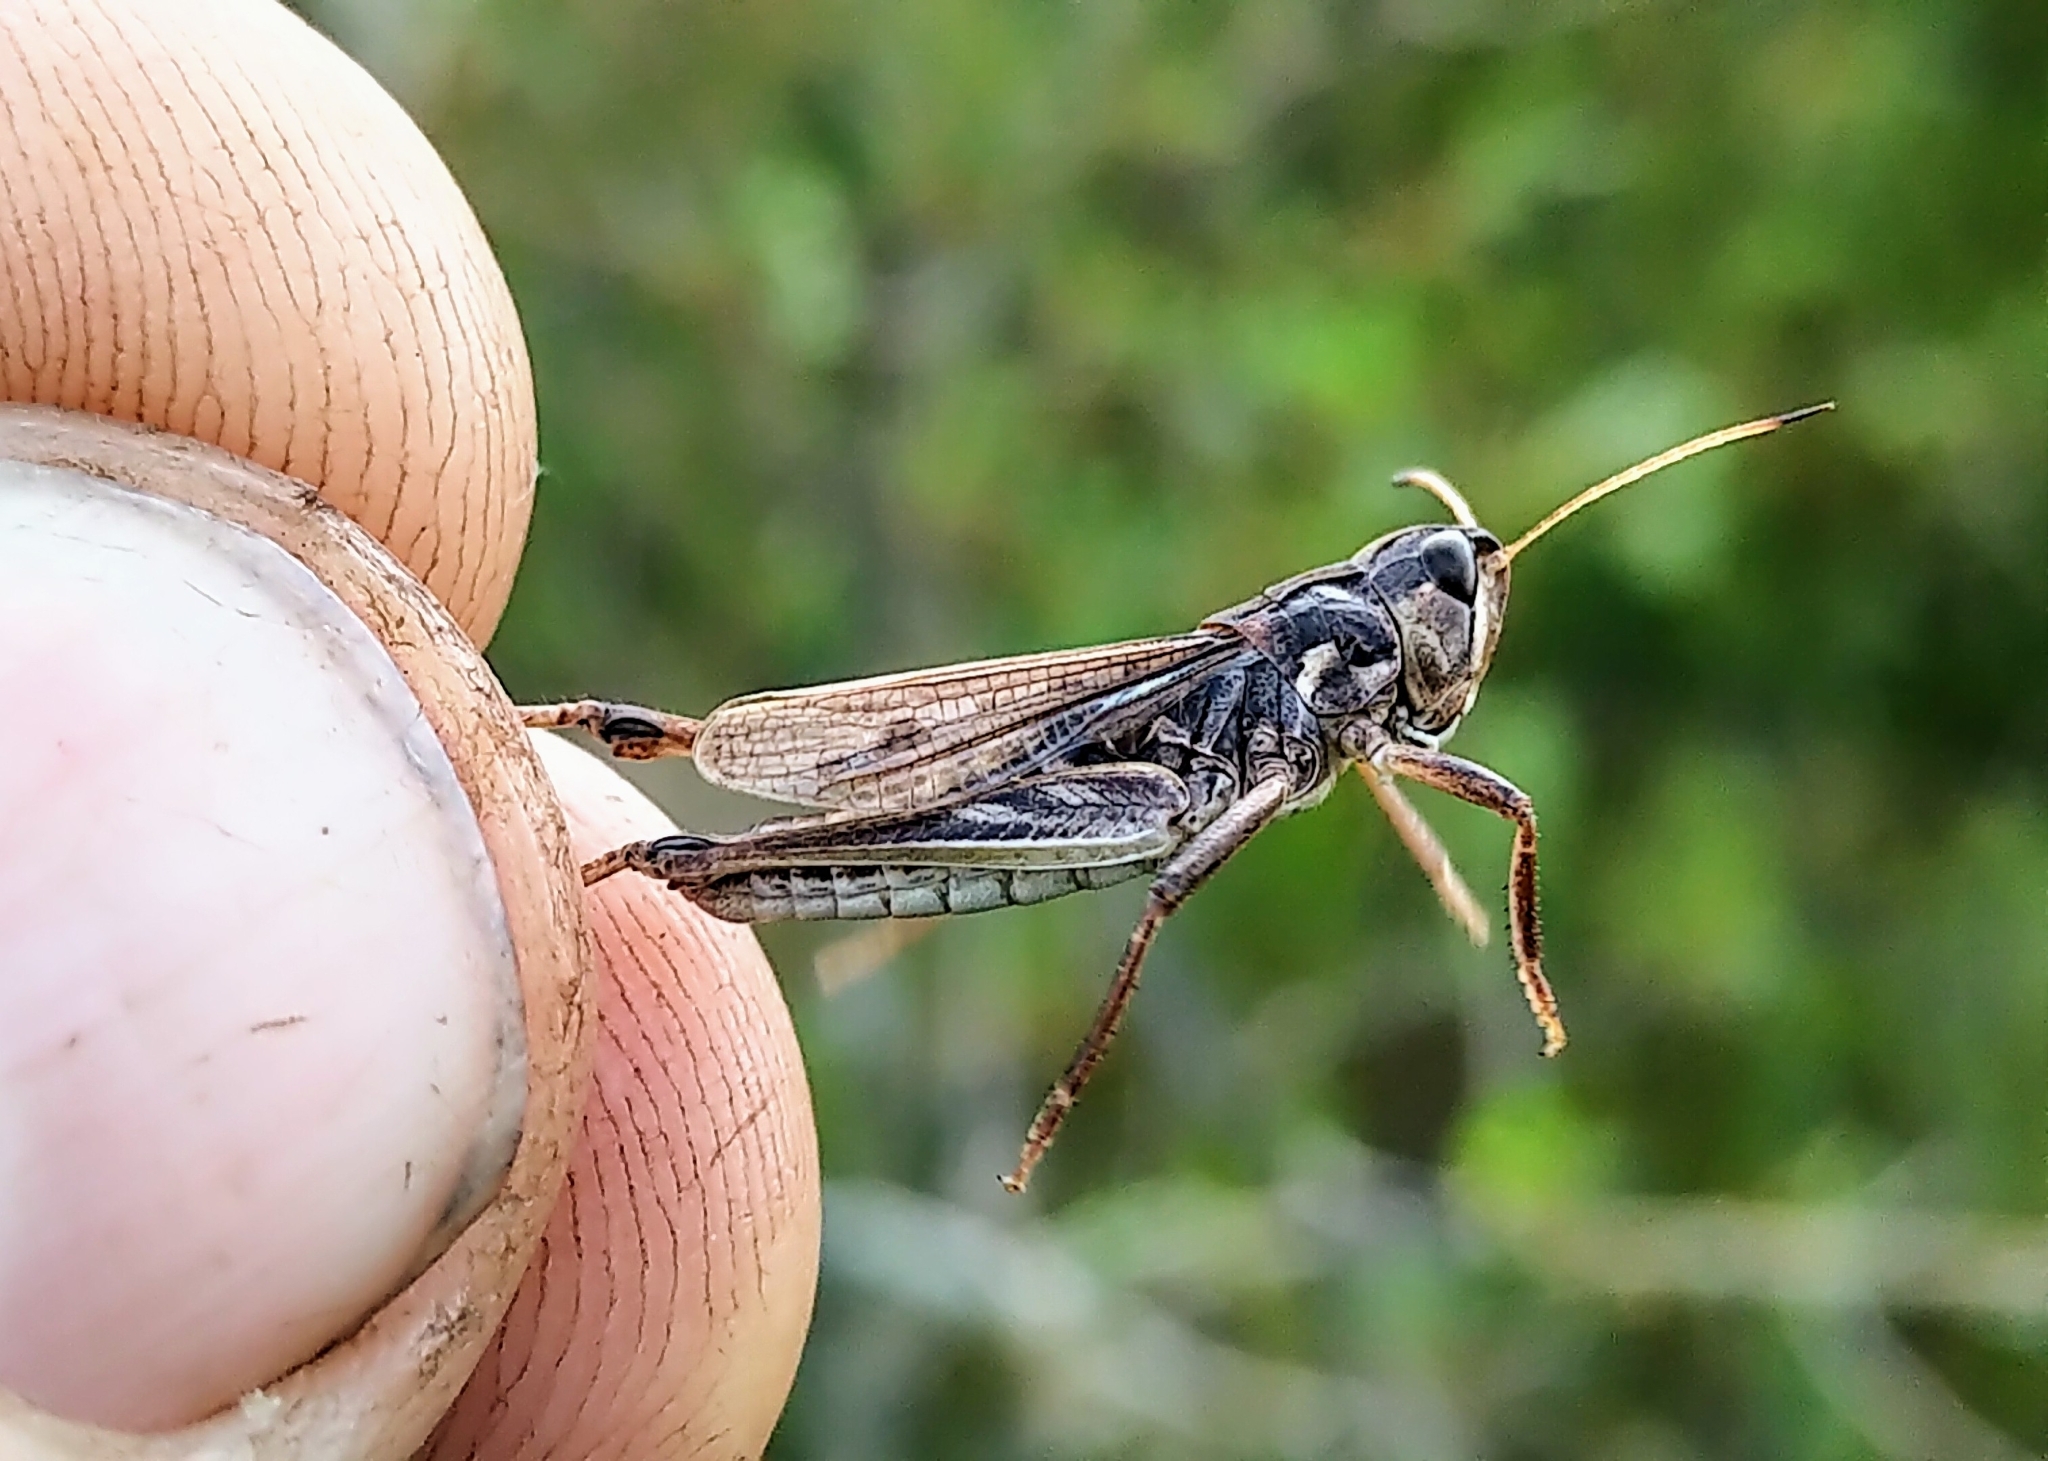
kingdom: Animalia
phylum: Arthropoda
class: Insecta
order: Orthoptera
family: Acrididae
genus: Aeropedellus
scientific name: Aeropedellus clavatus
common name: Clubhorned grasshopper
